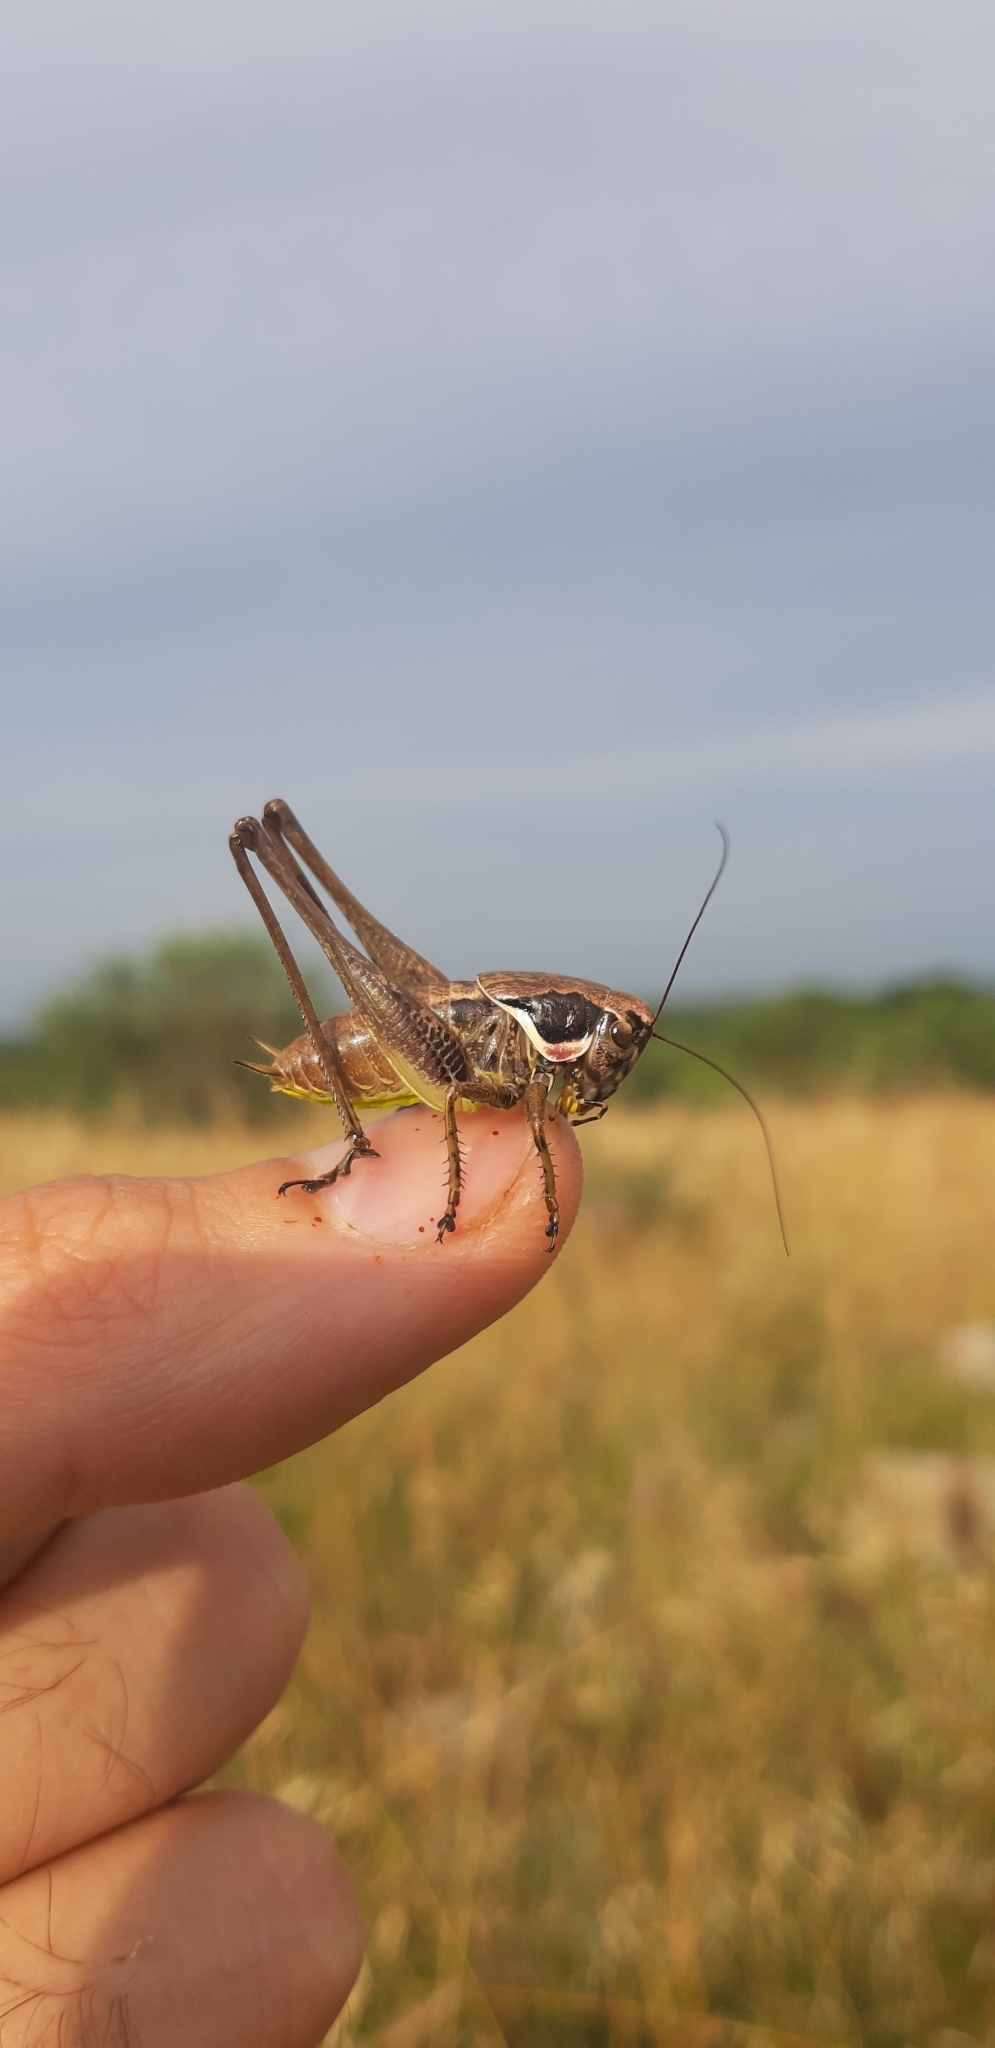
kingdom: Animalia
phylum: Arthropoda
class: Insecta
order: Orthoptera
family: Tettigoniidae
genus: Pholidoptera
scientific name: Pholidoptera femorata
